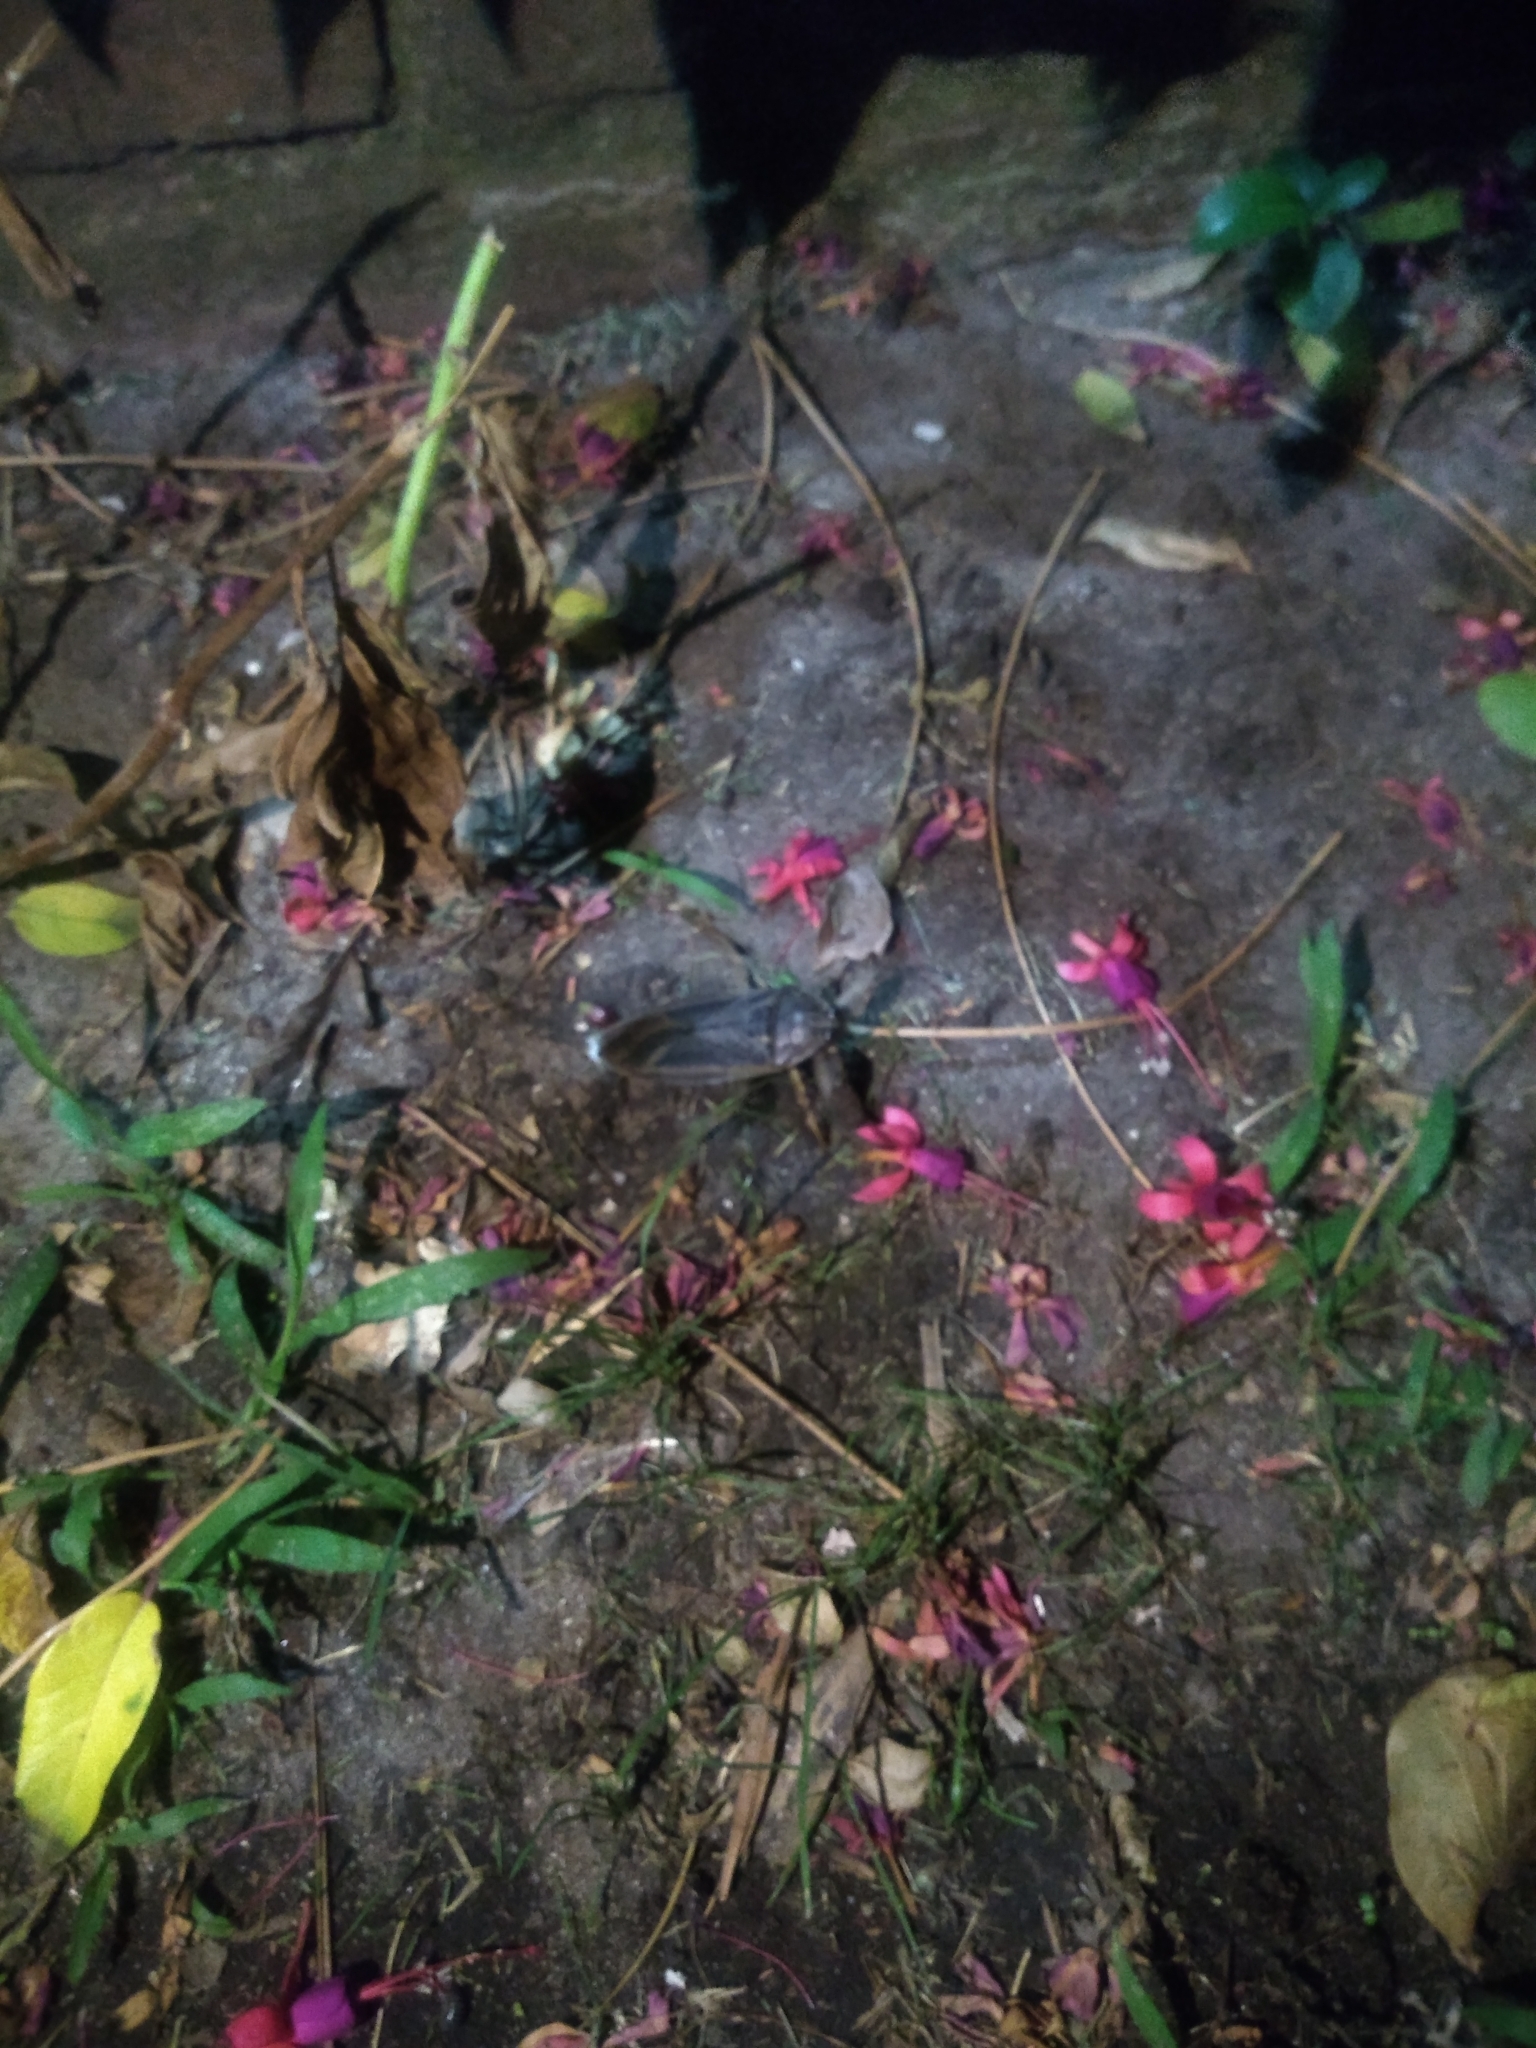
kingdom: Animalia
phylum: Arthropoda
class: Insecta
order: Hemiptera
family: Belostomatidae
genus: Lethocerus
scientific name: Lethocerus annulipes
